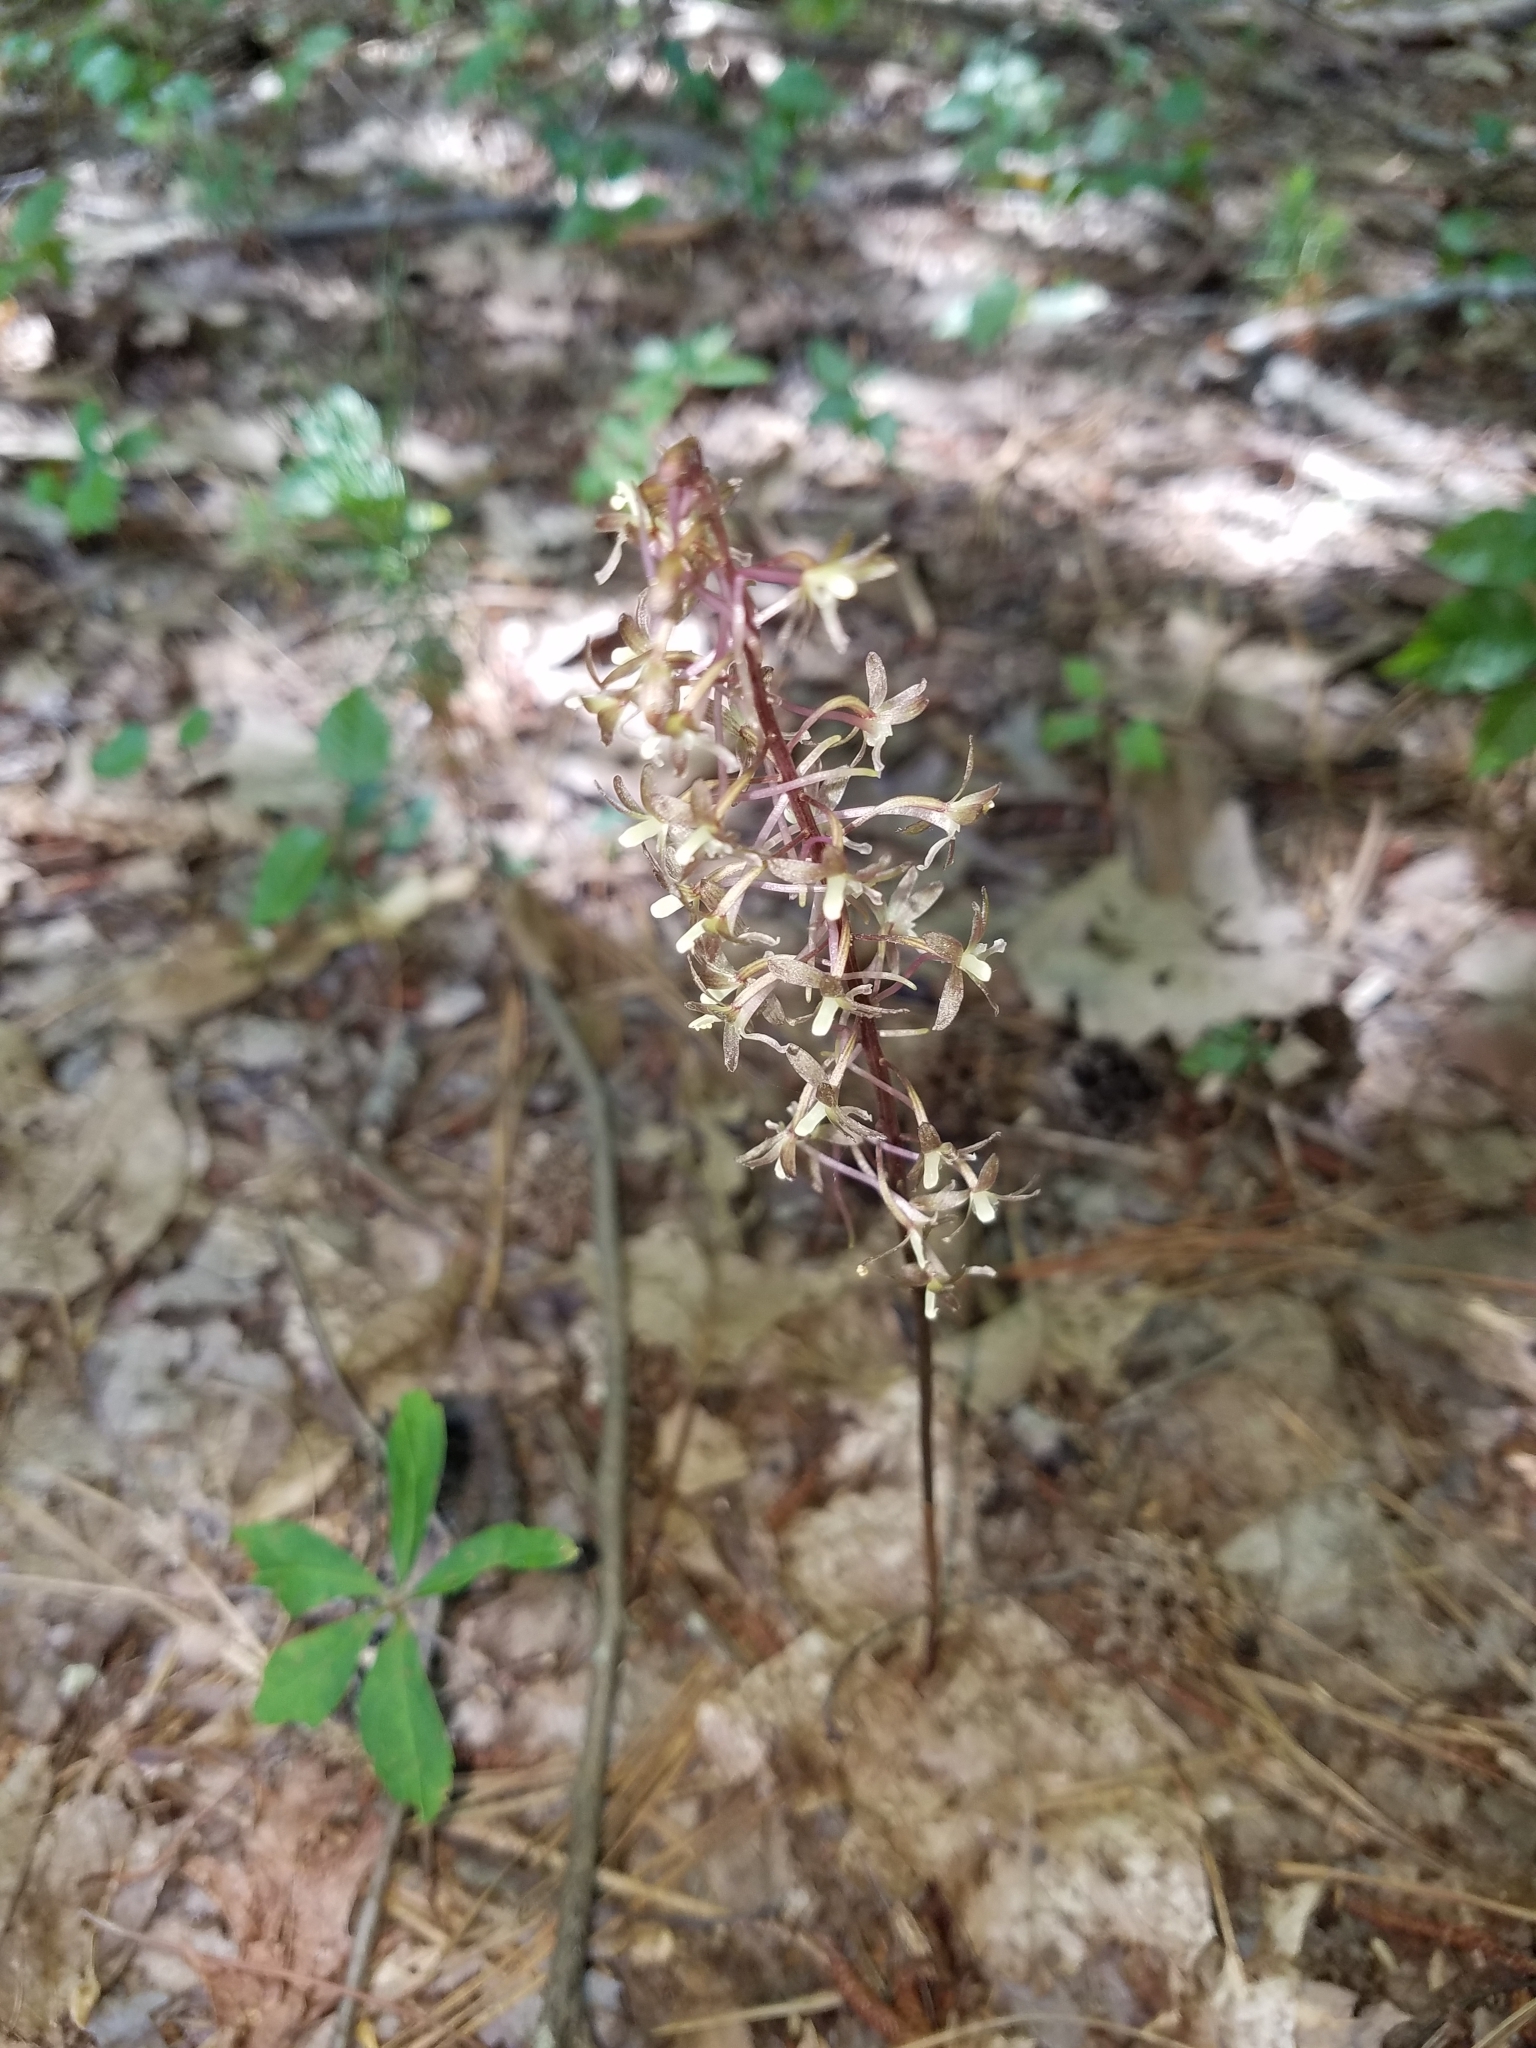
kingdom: Plantae
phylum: Tracheophyta
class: Liliopsida
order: Asparagales
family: Orchidaceae
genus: Tipularia
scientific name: Tipularia discolor
